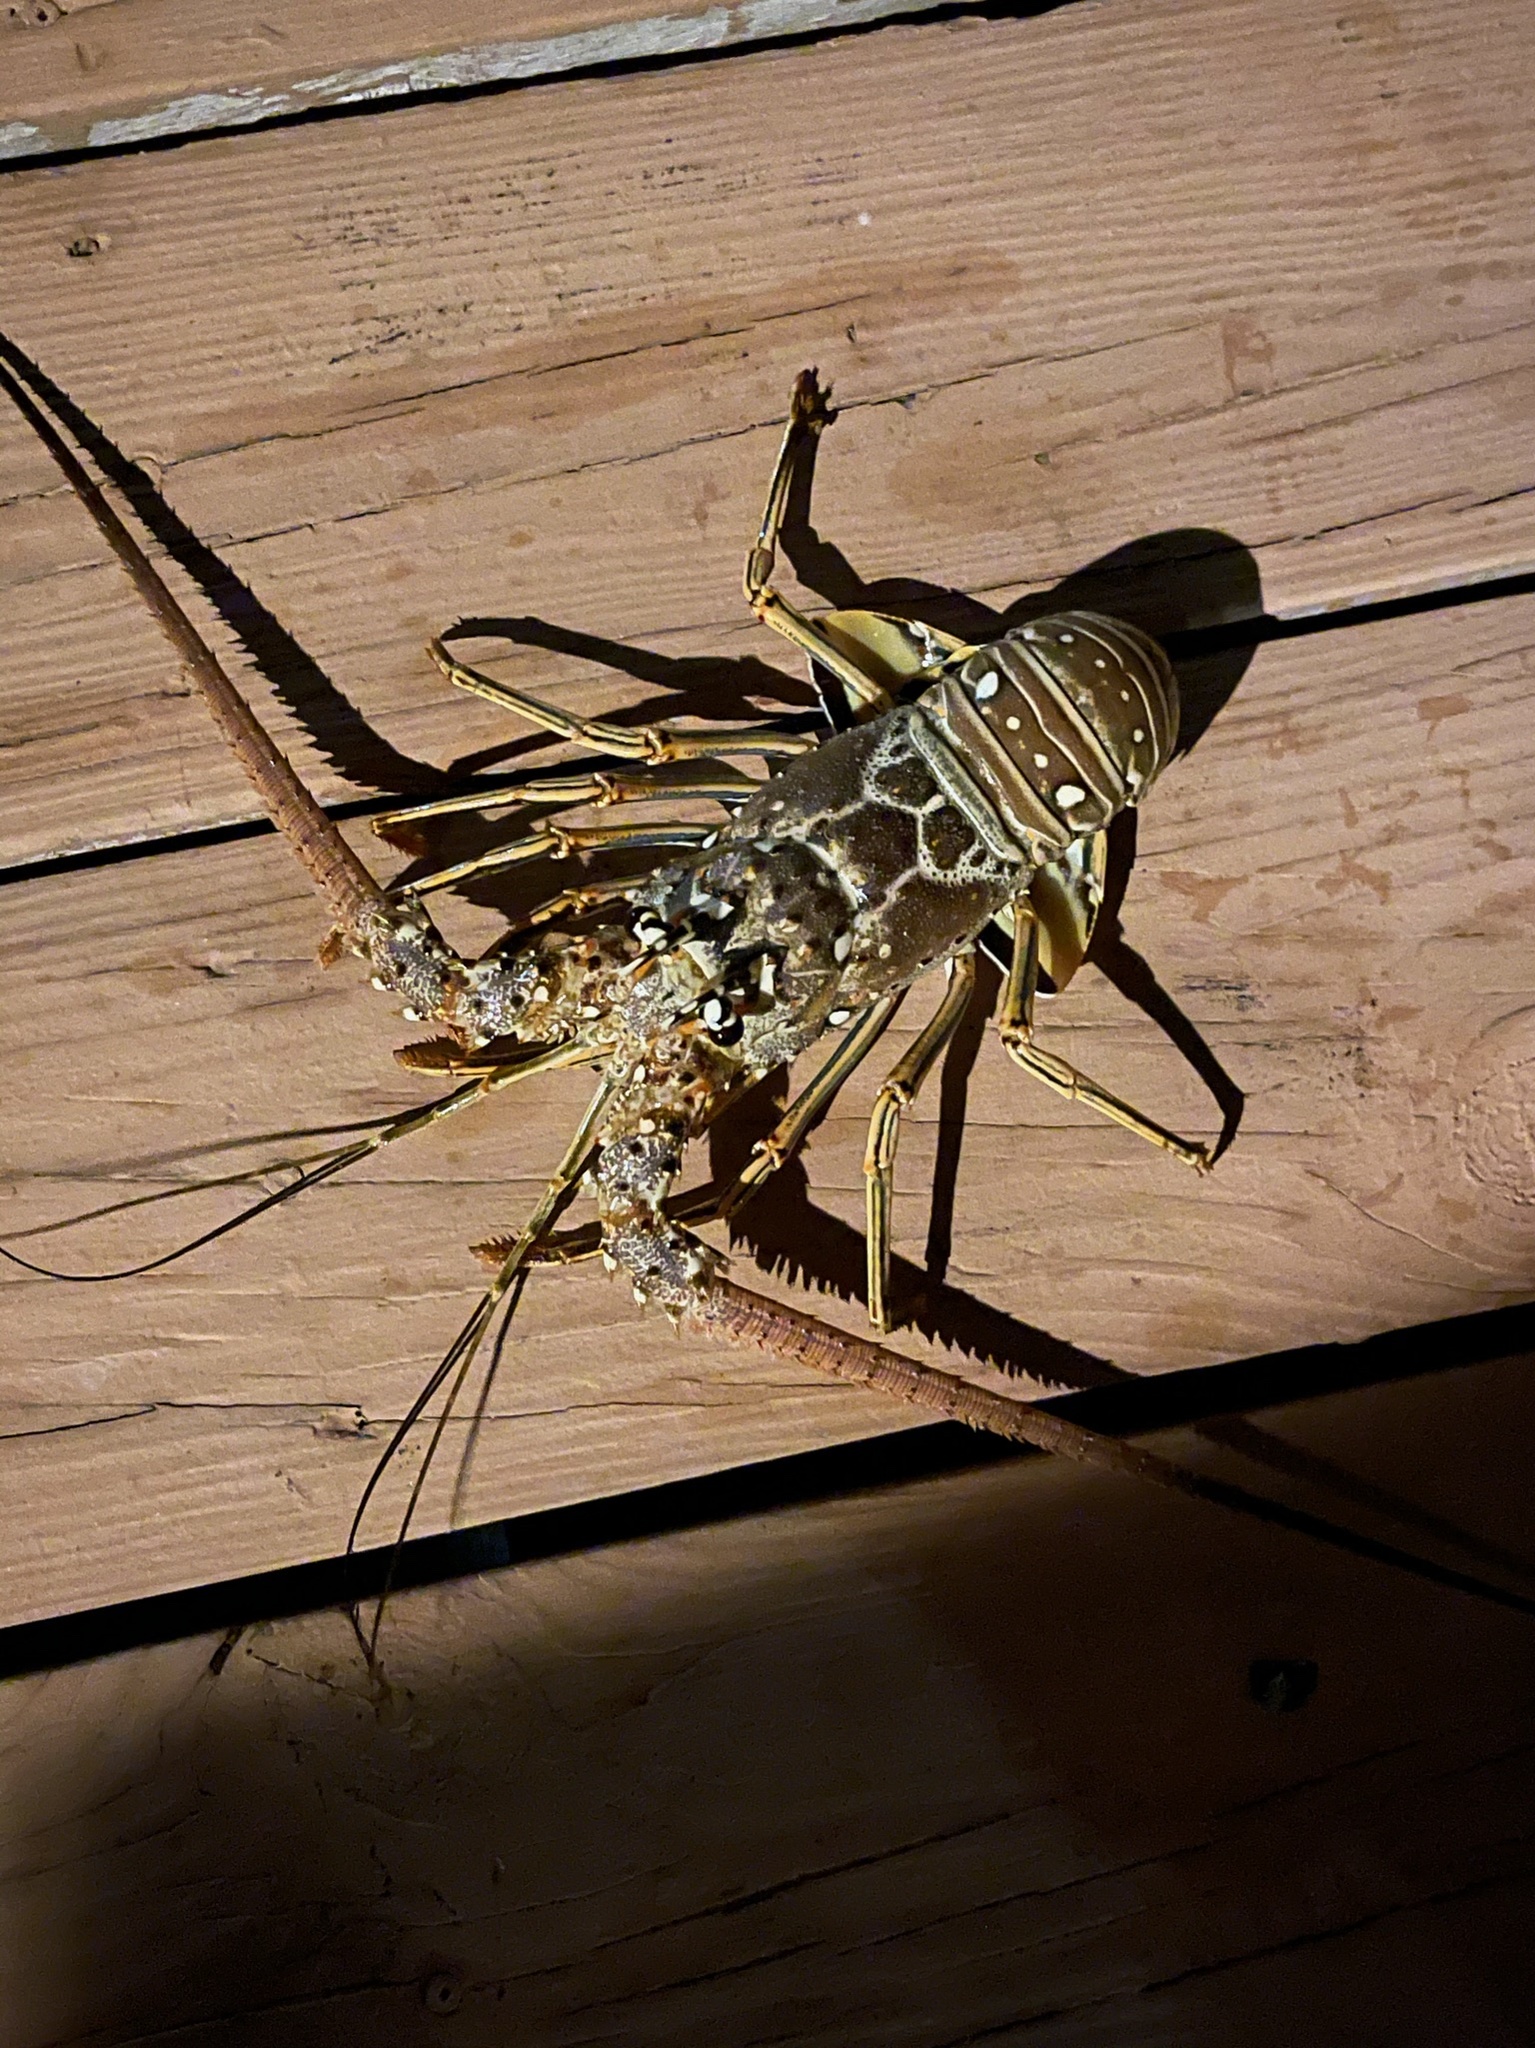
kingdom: Animalia
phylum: Arthropoda
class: Malacostraca
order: Decapoda
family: Palinuridae
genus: Panulirus
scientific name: Panulirus argus
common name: Caribbean spiny lobster
